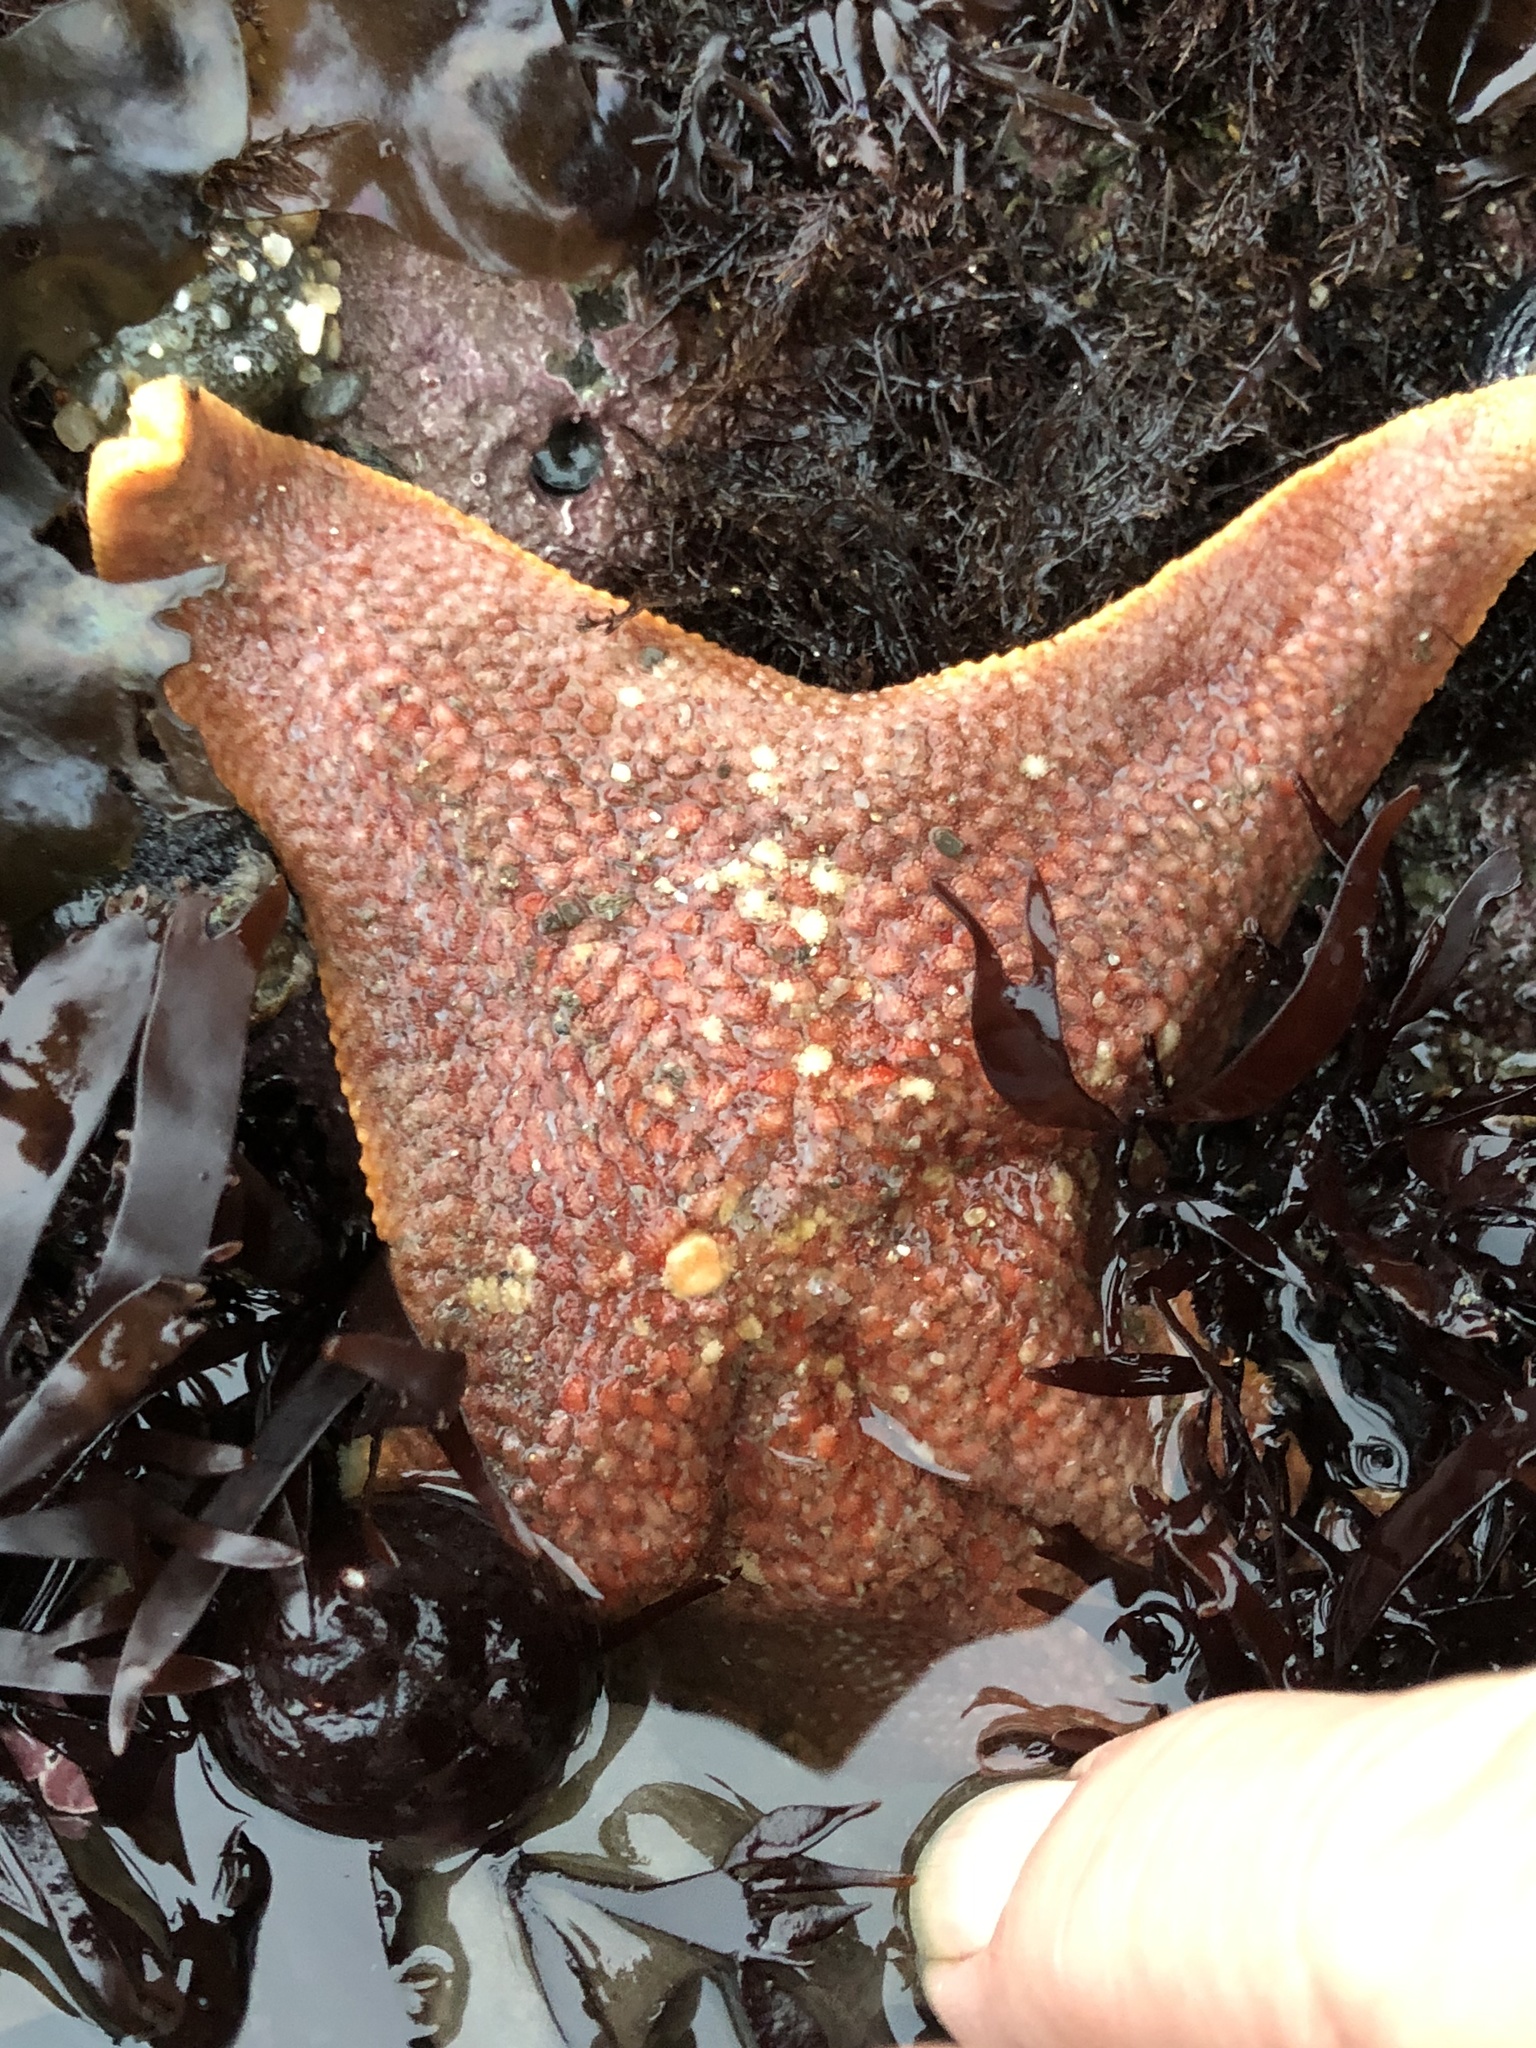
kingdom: Animalia
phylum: Echinodermata
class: Asteroidea
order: Valvatida
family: Asterinidae
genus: Patiria
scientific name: Patiria miniata
